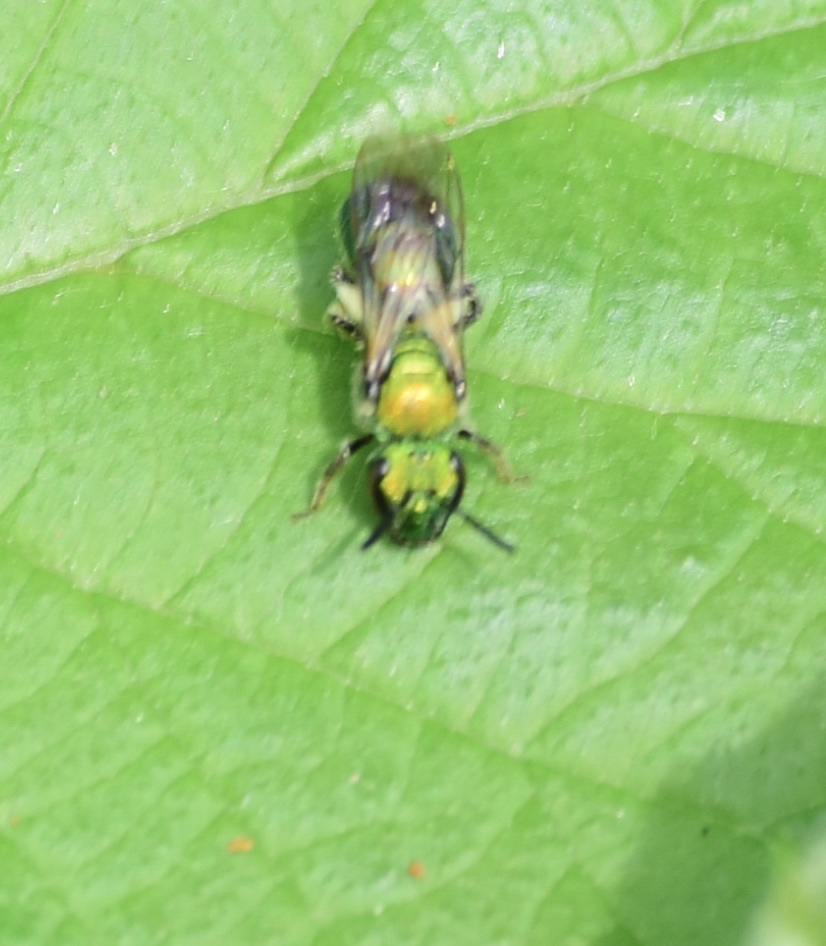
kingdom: Animalia
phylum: Arthropoda
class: Insecta
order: Hymenoptera
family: Halictidae
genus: Augochlora
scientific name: Augochlora pura
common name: Pure green sweat bee
